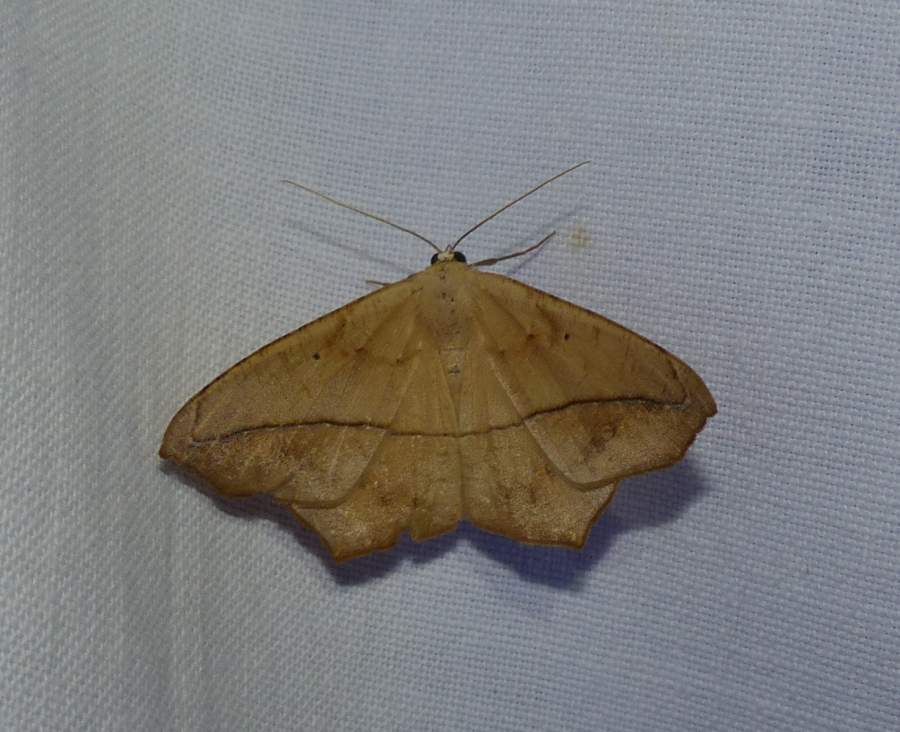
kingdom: Animalia
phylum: Arthropoda
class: Insecta
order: Lepidoptera
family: Geometridae
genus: Prochoerodes
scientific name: Prochoerodes lineola
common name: Large maple spanworm
